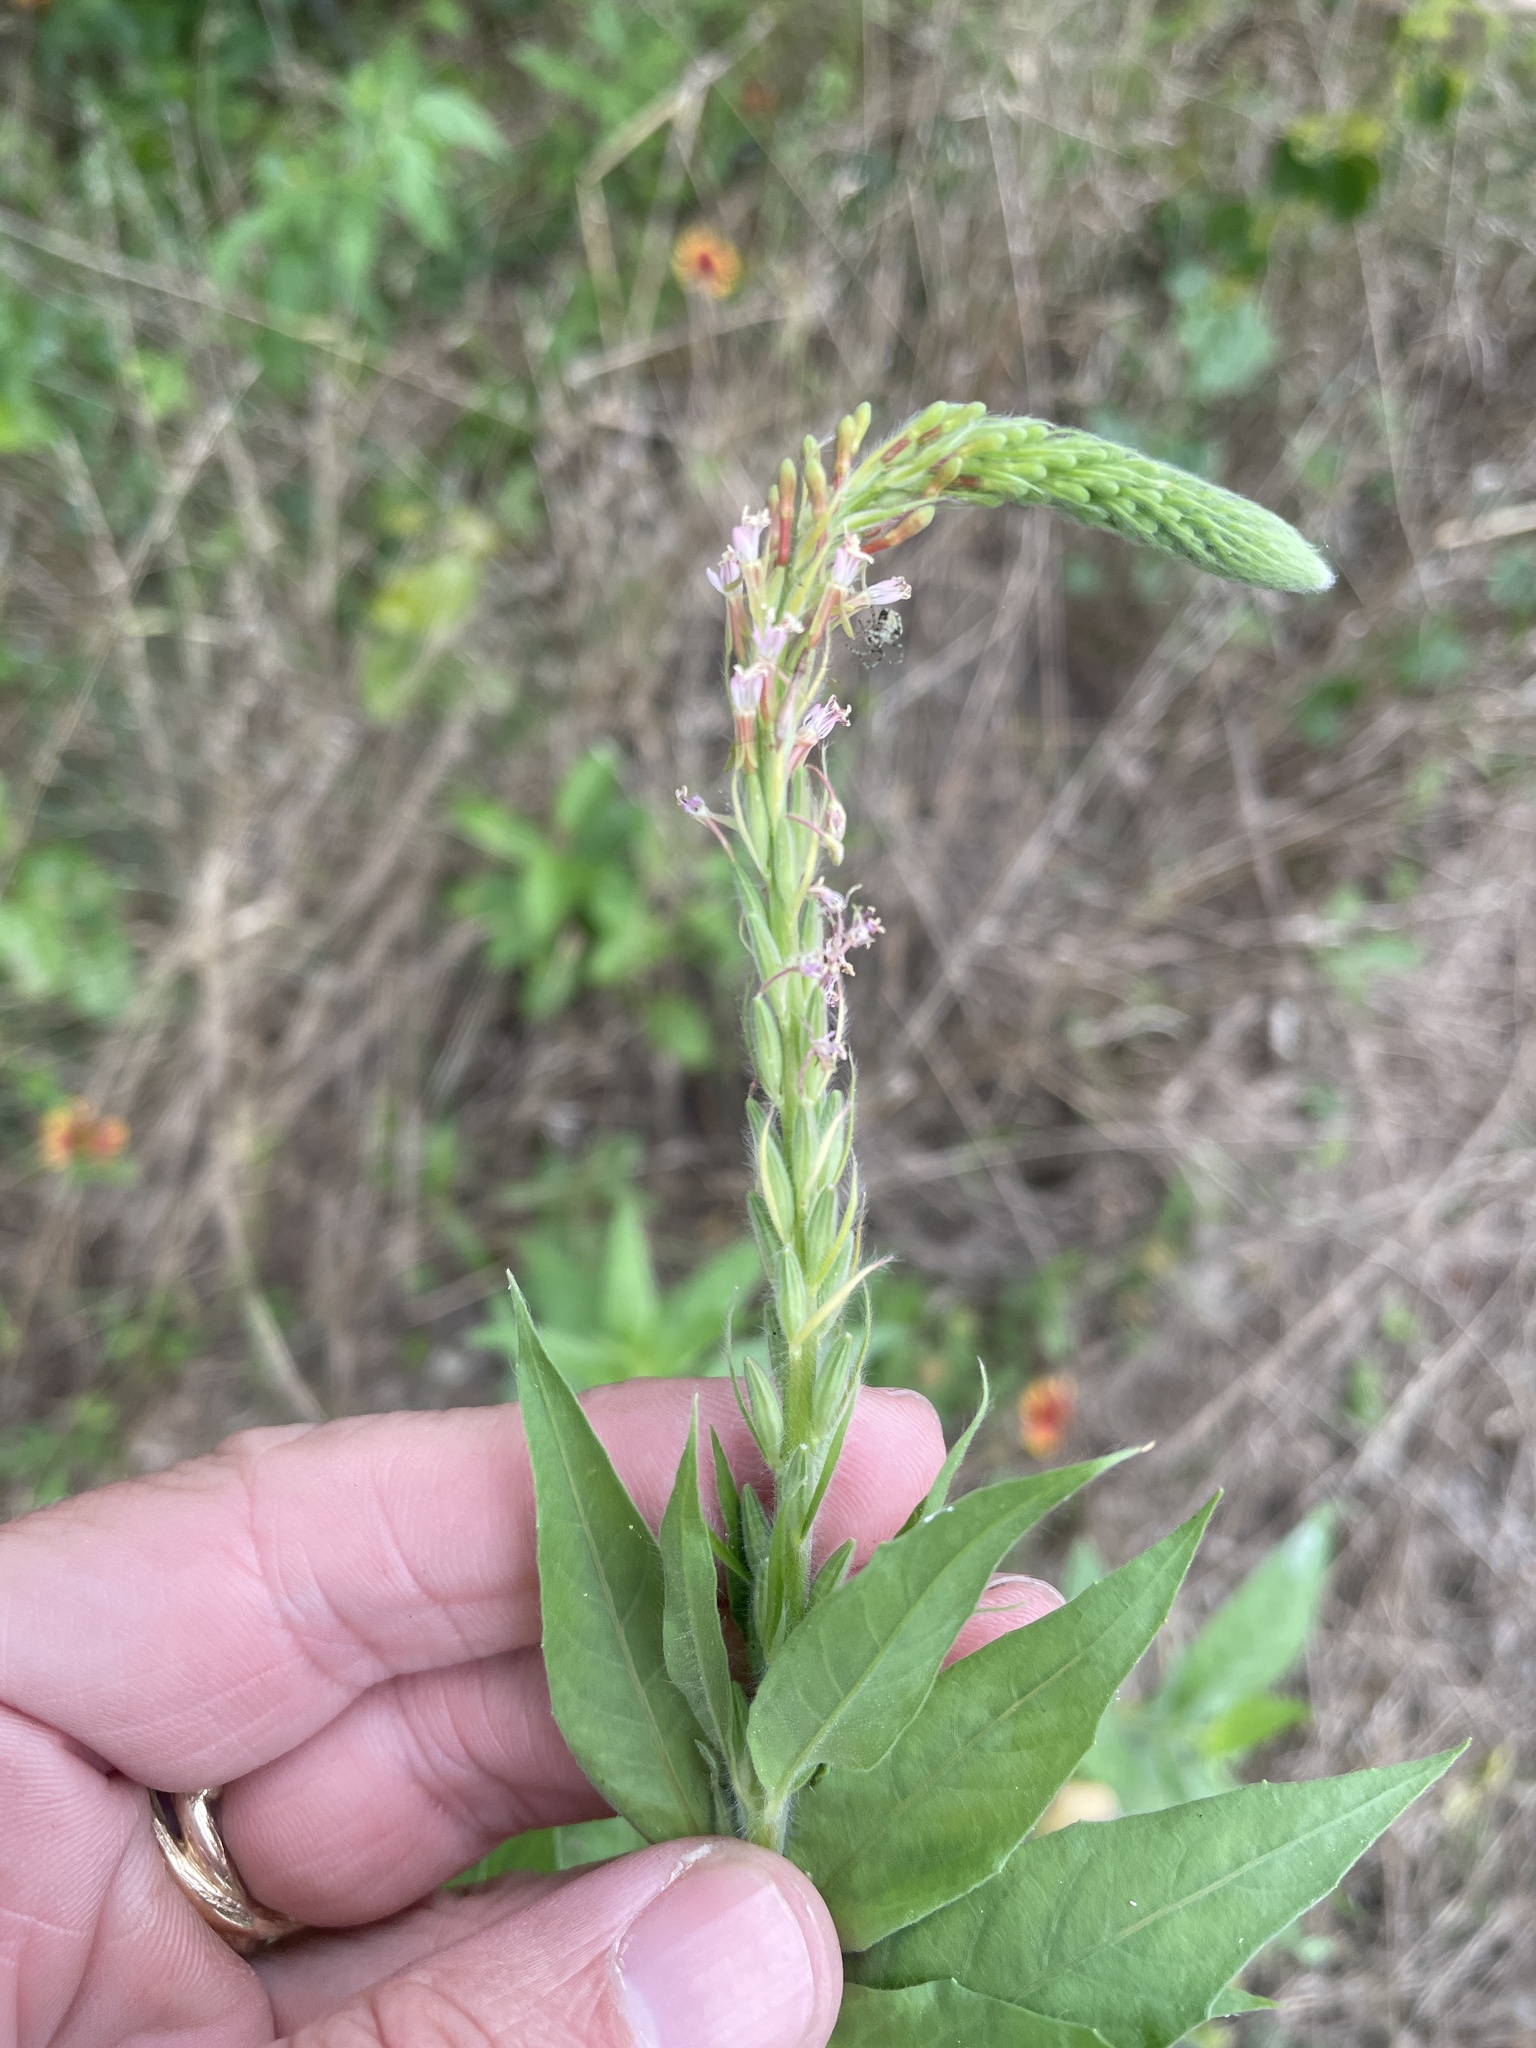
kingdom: Plantae
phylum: Tracheophyta
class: Magnoliopsida
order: Myrtales
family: Onagraceae
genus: Oenothera
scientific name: Oenothera curtiflora
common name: Velvetweed
